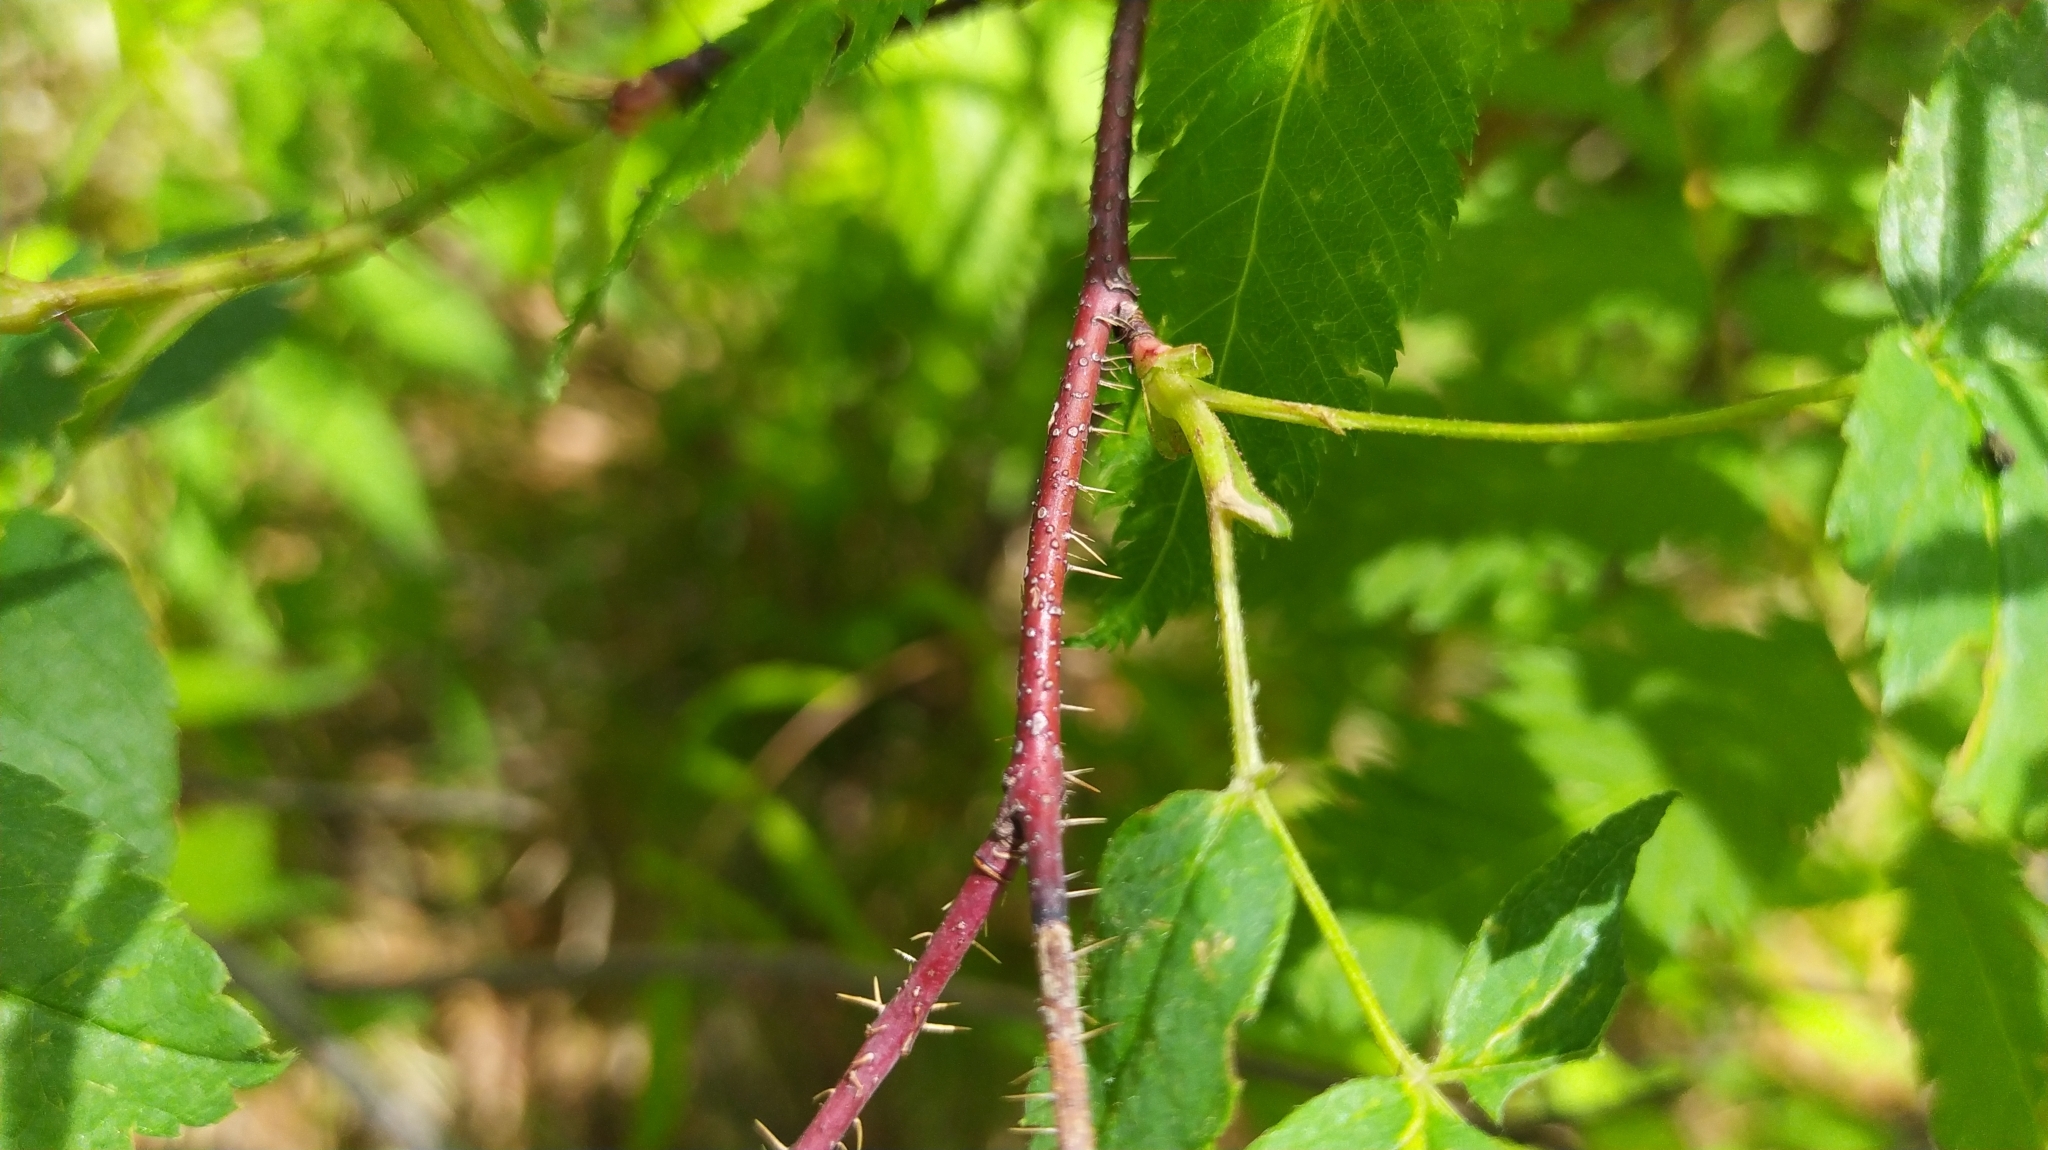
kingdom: Plantae
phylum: Tracheophyta
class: Magnoliopsida
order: Rosales
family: Rosaceae
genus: Rosa
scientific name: Rosa acicularis
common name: Prickly rose
